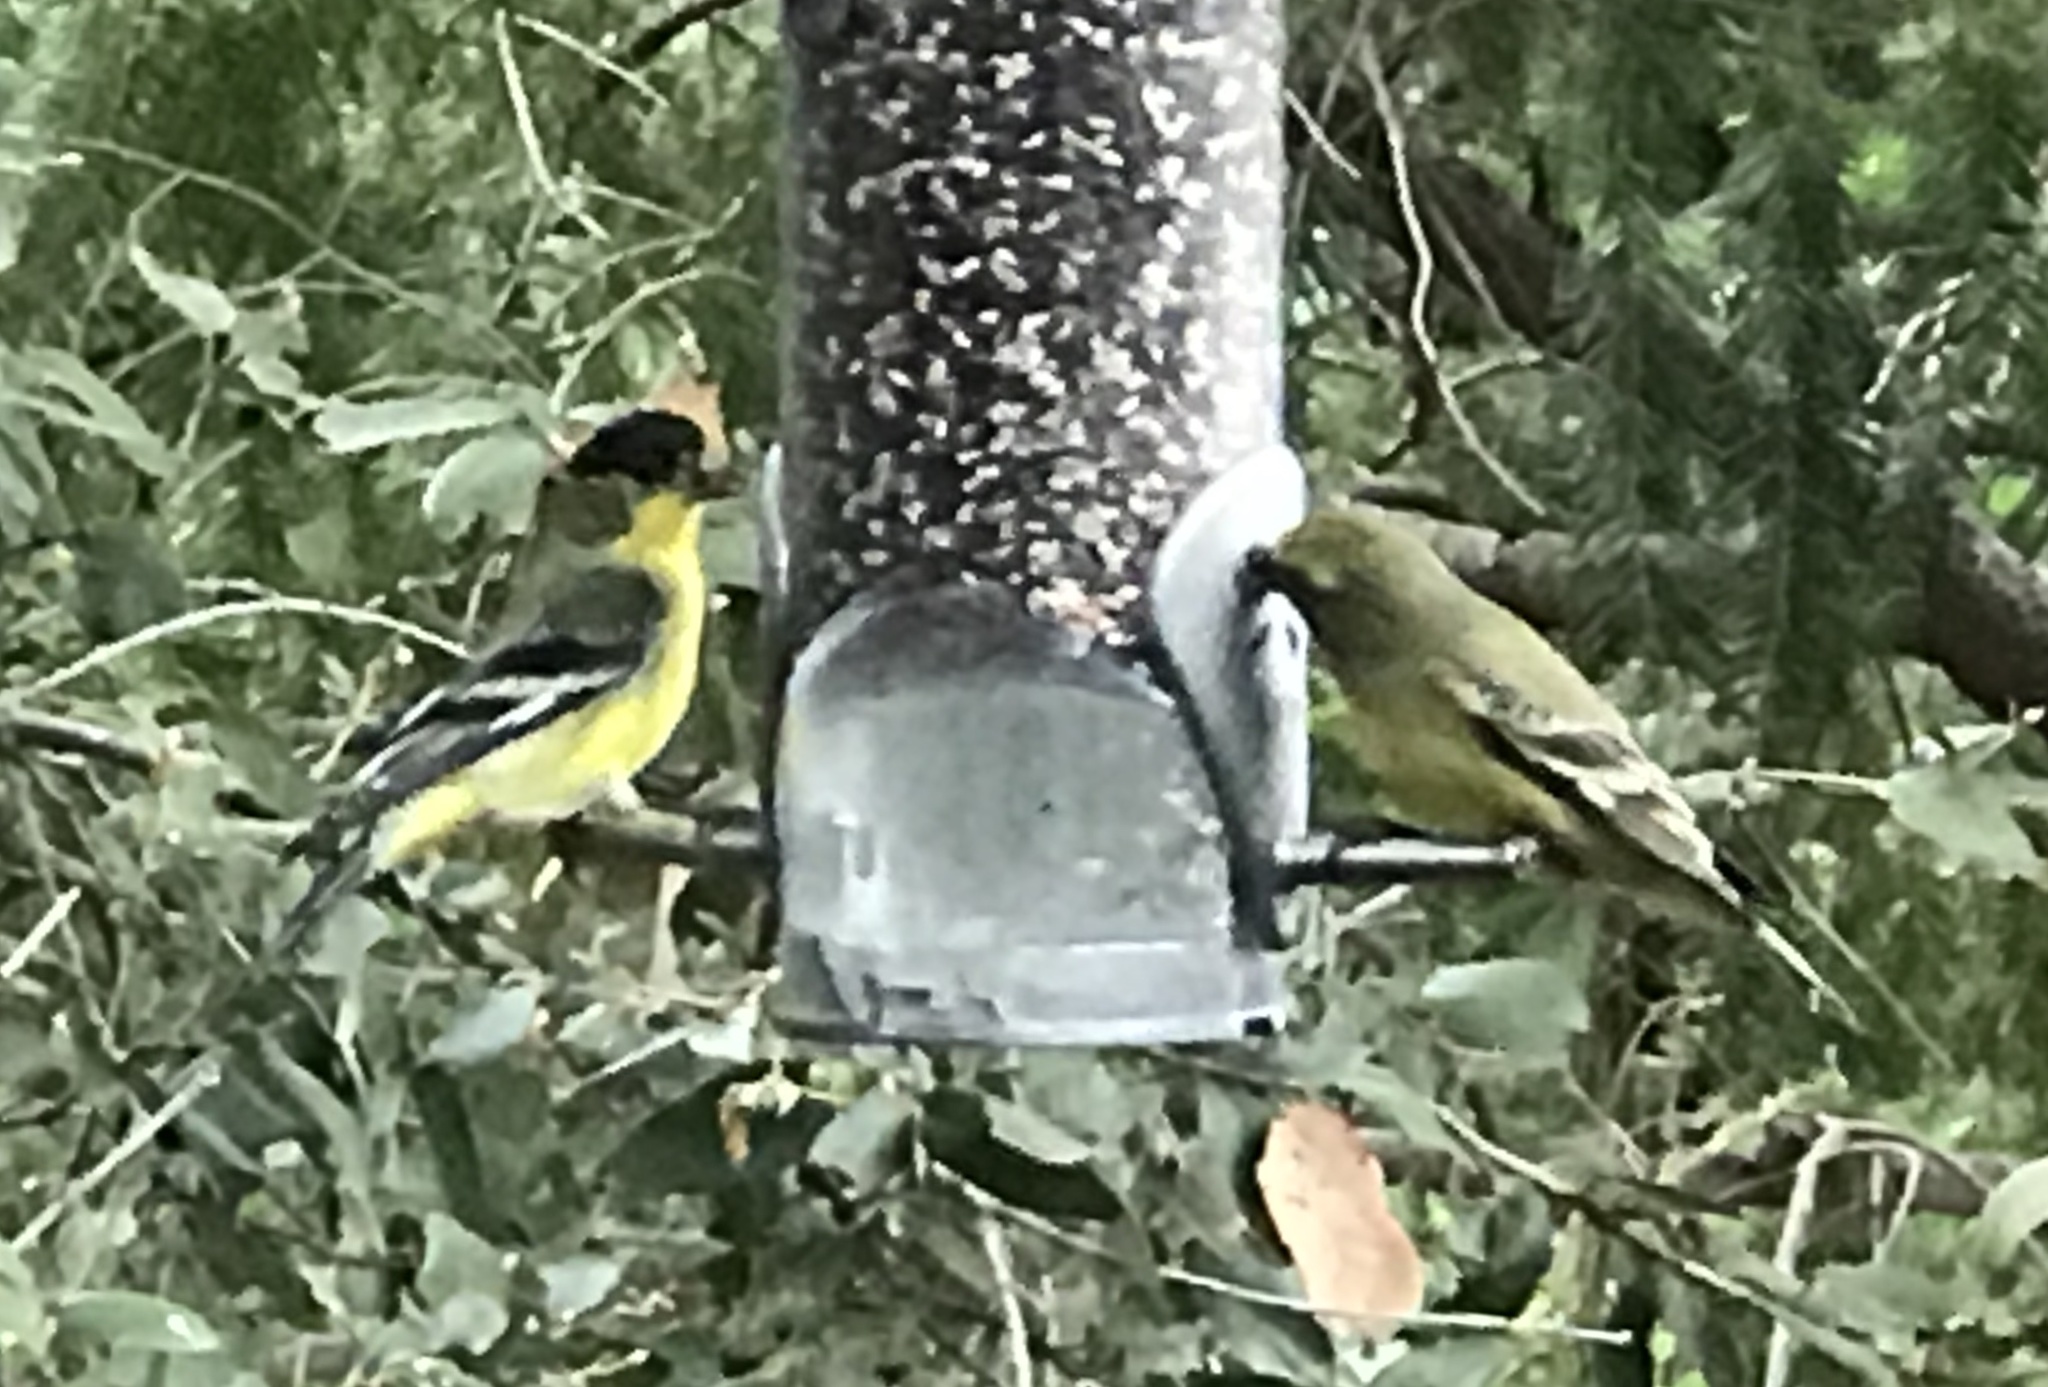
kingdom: Animalia
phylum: Chordata
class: Aves
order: Passeriformes
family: Fringillidae
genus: Spinus
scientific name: Spinus psaltria
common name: Lesser goldfinch
